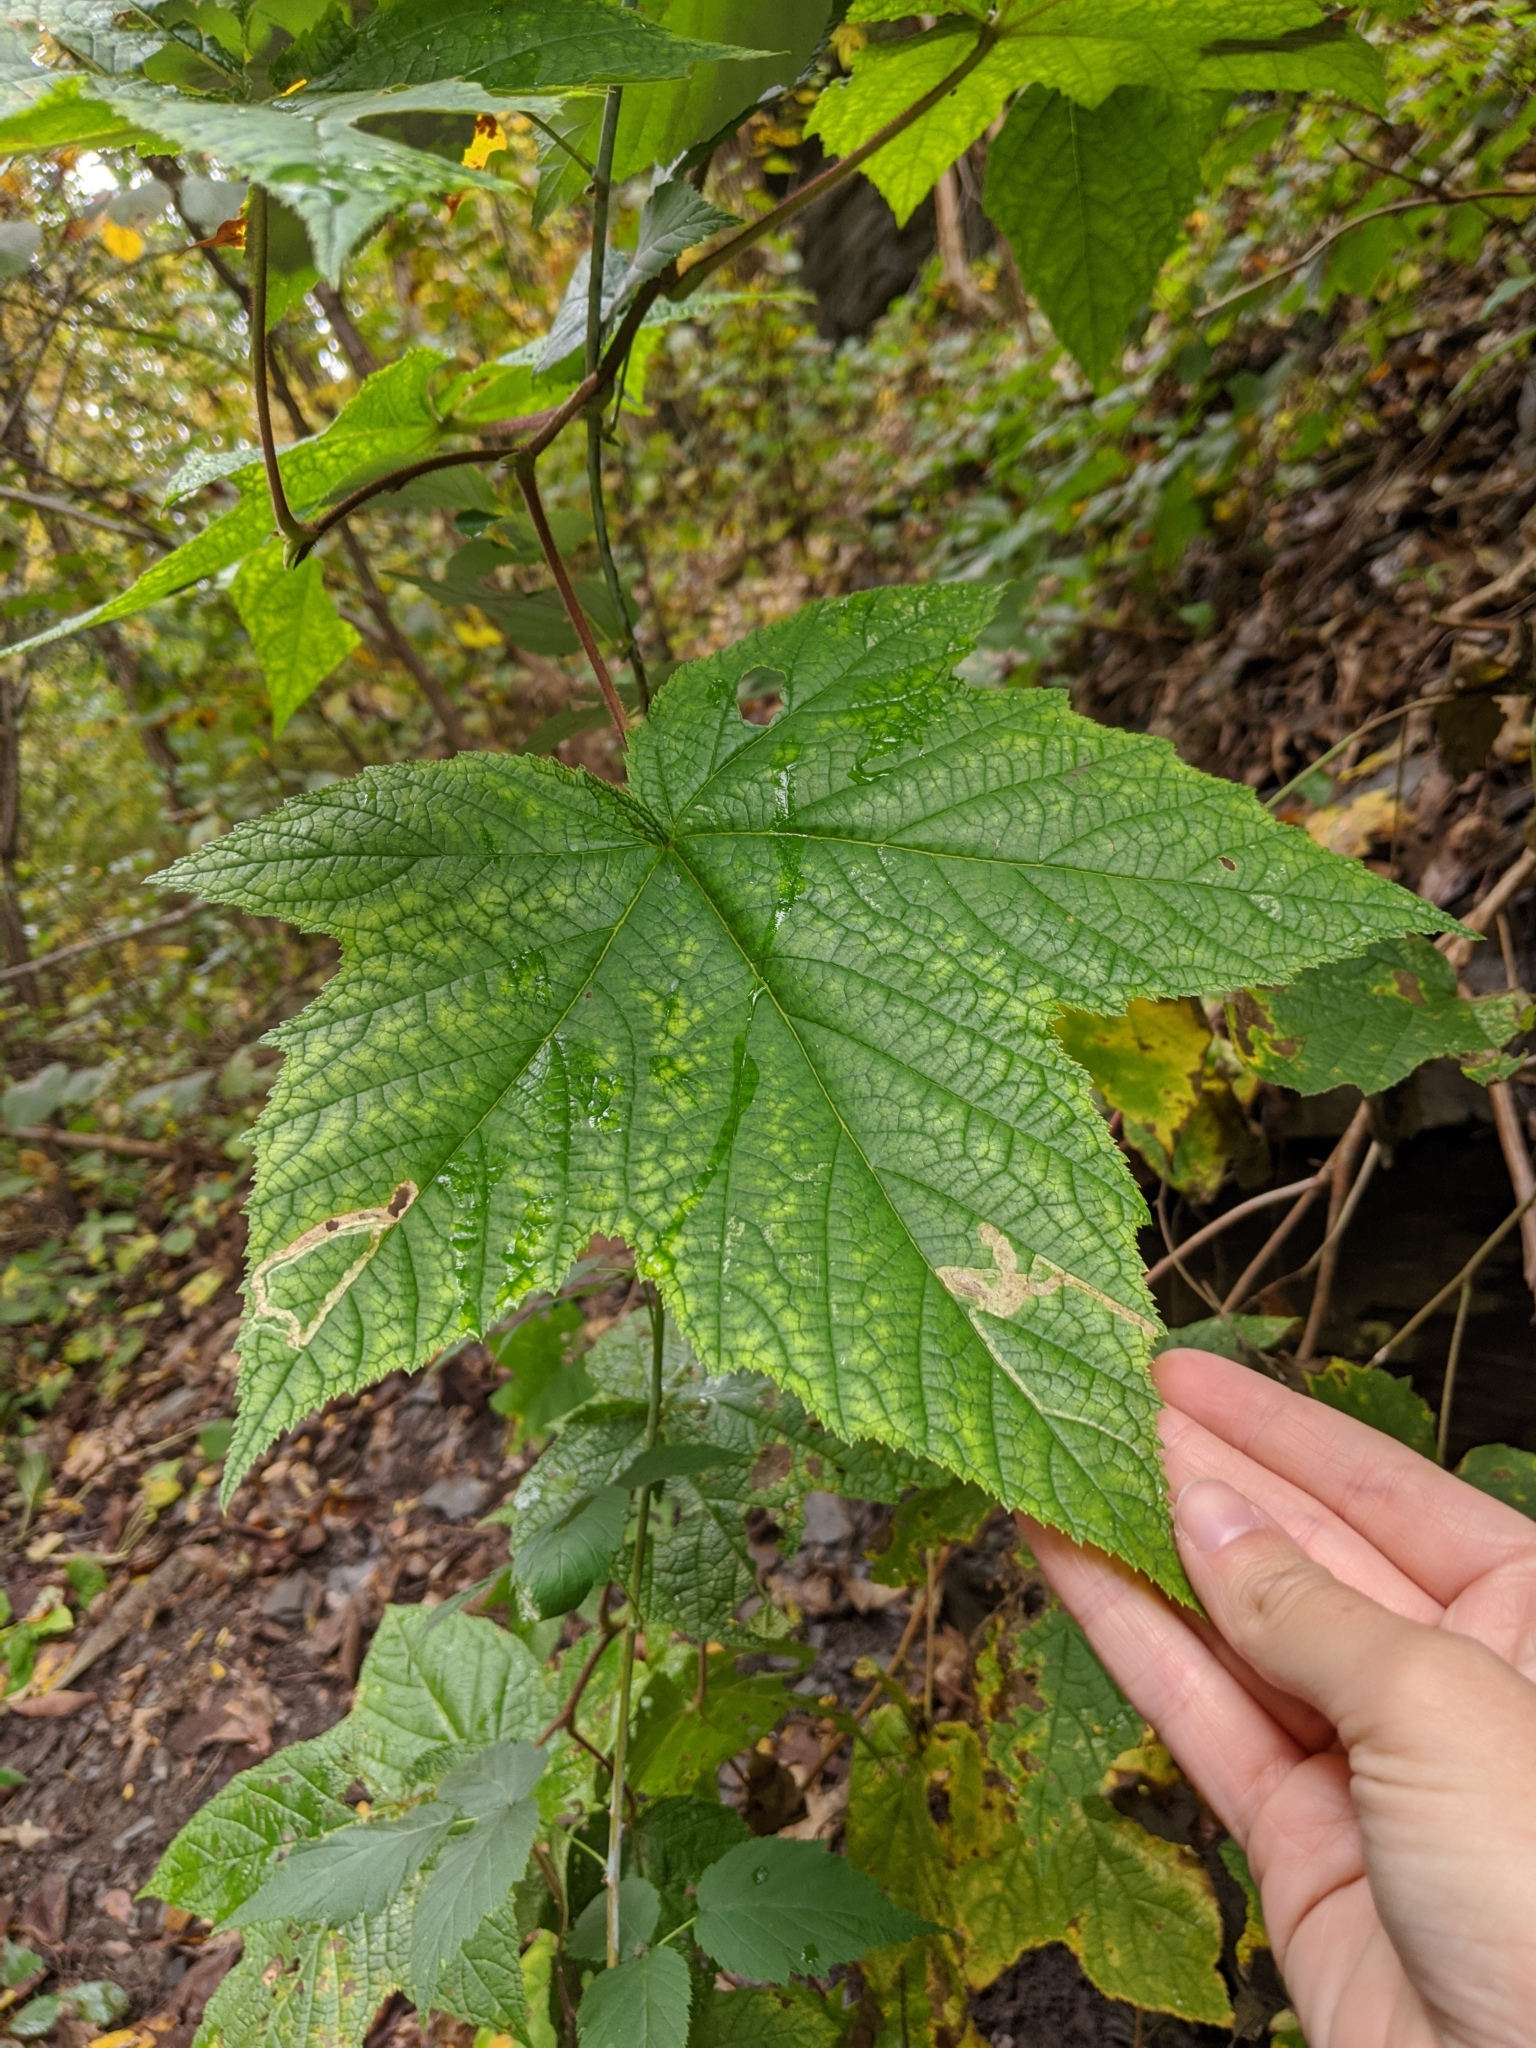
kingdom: Plantae
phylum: Tracheophyta
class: Magnoliopsida
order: Rosales
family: Rosaceae
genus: Rubus
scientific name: Rubus odoratus
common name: Purple-flowered raspberry
